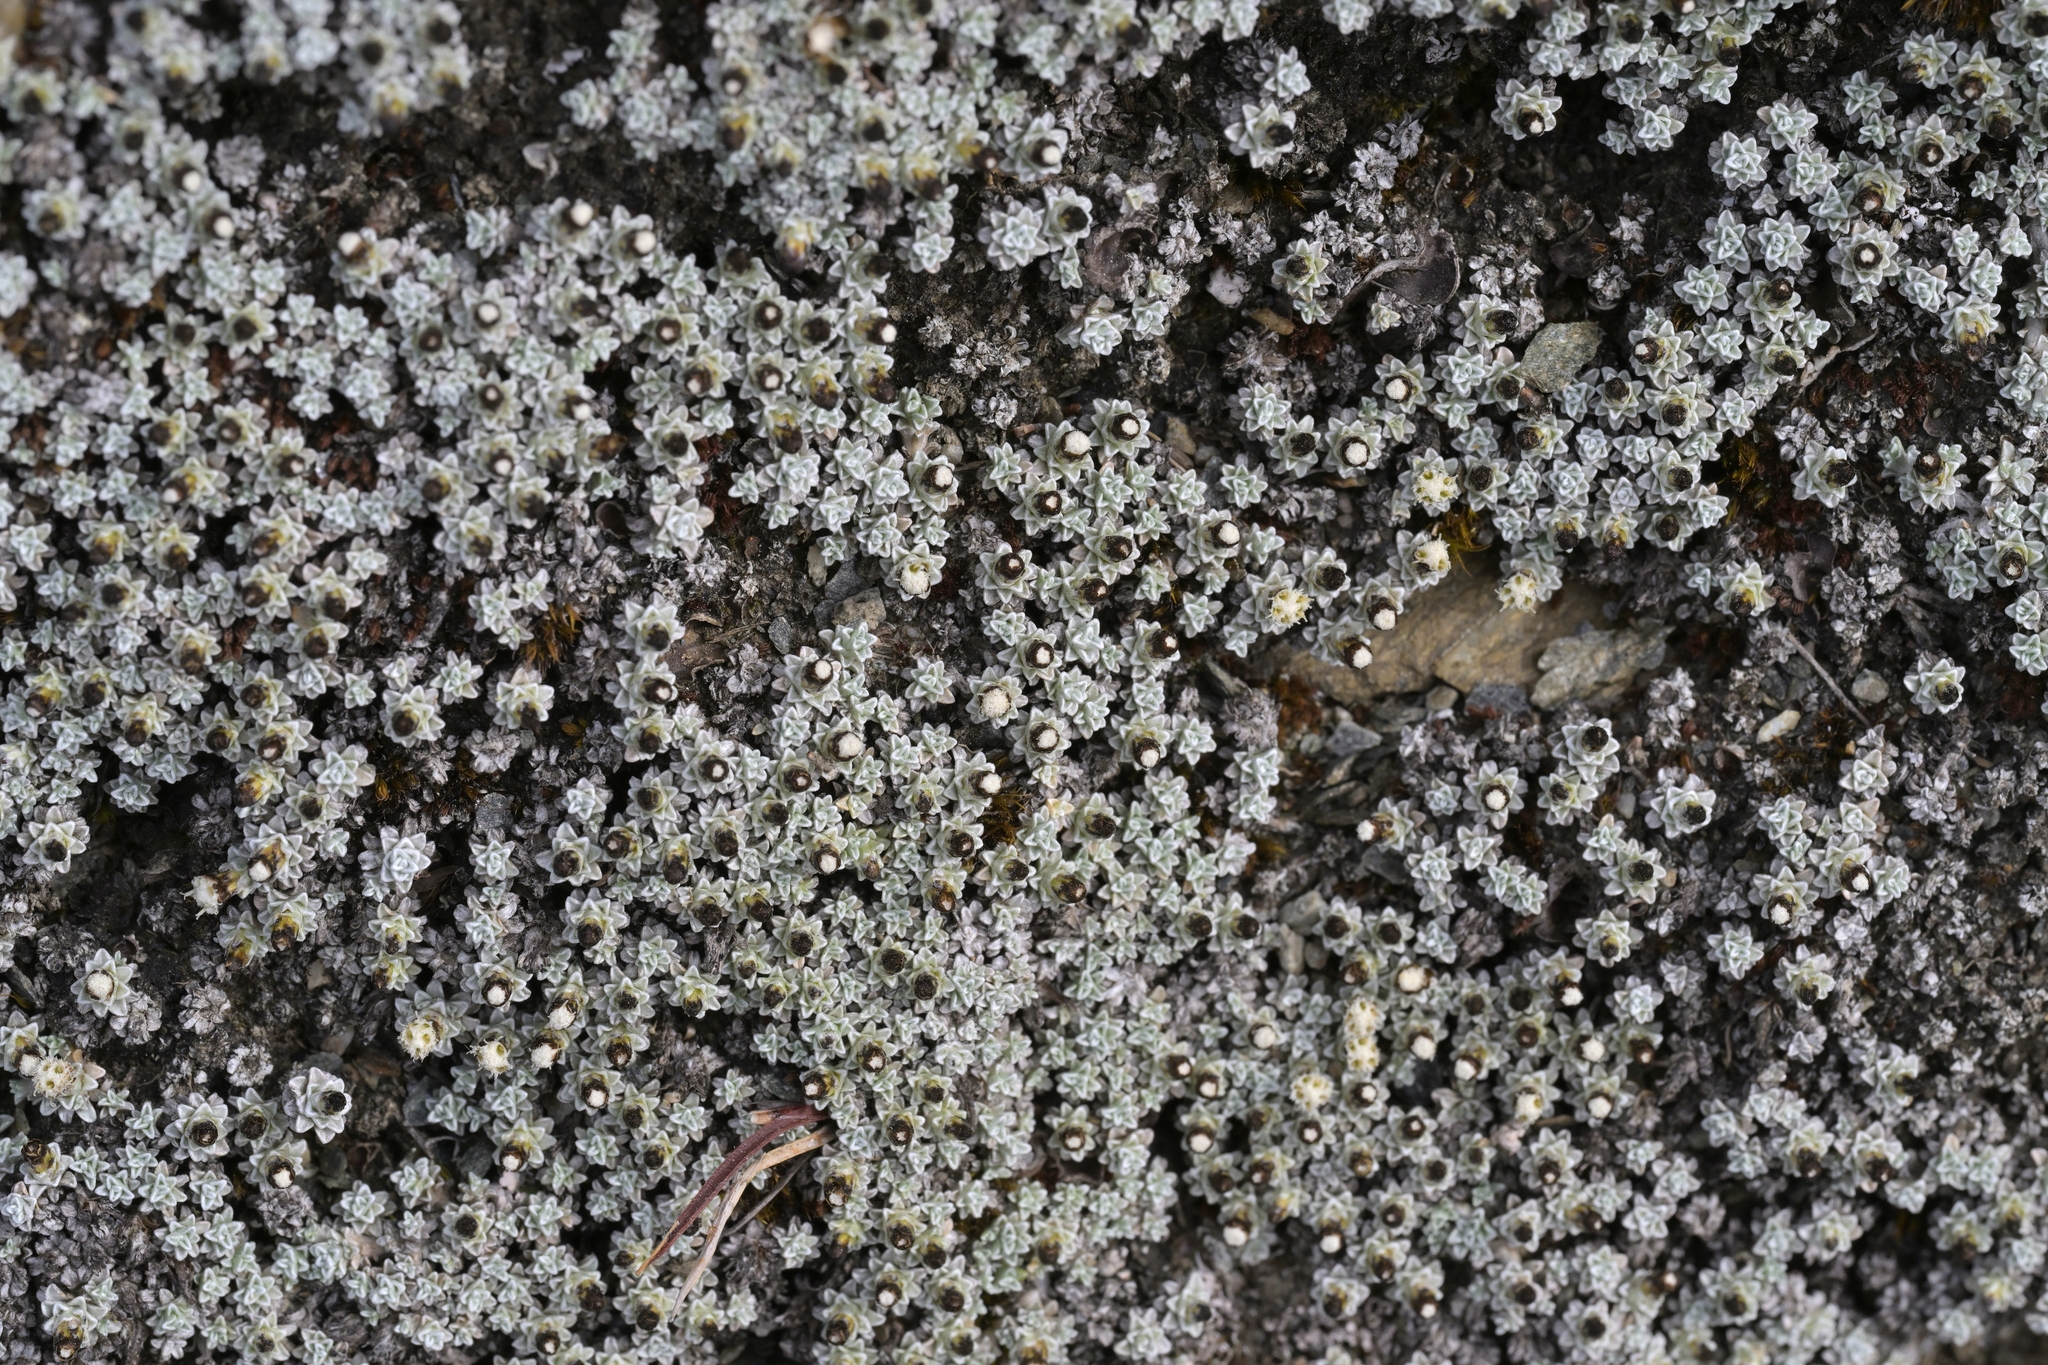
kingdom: Plantae
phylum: Tracheophyta
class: Magnoliopsida
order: Asterales
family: Asteraceae
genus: Raoulia
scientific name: Raoulia apicinigra
